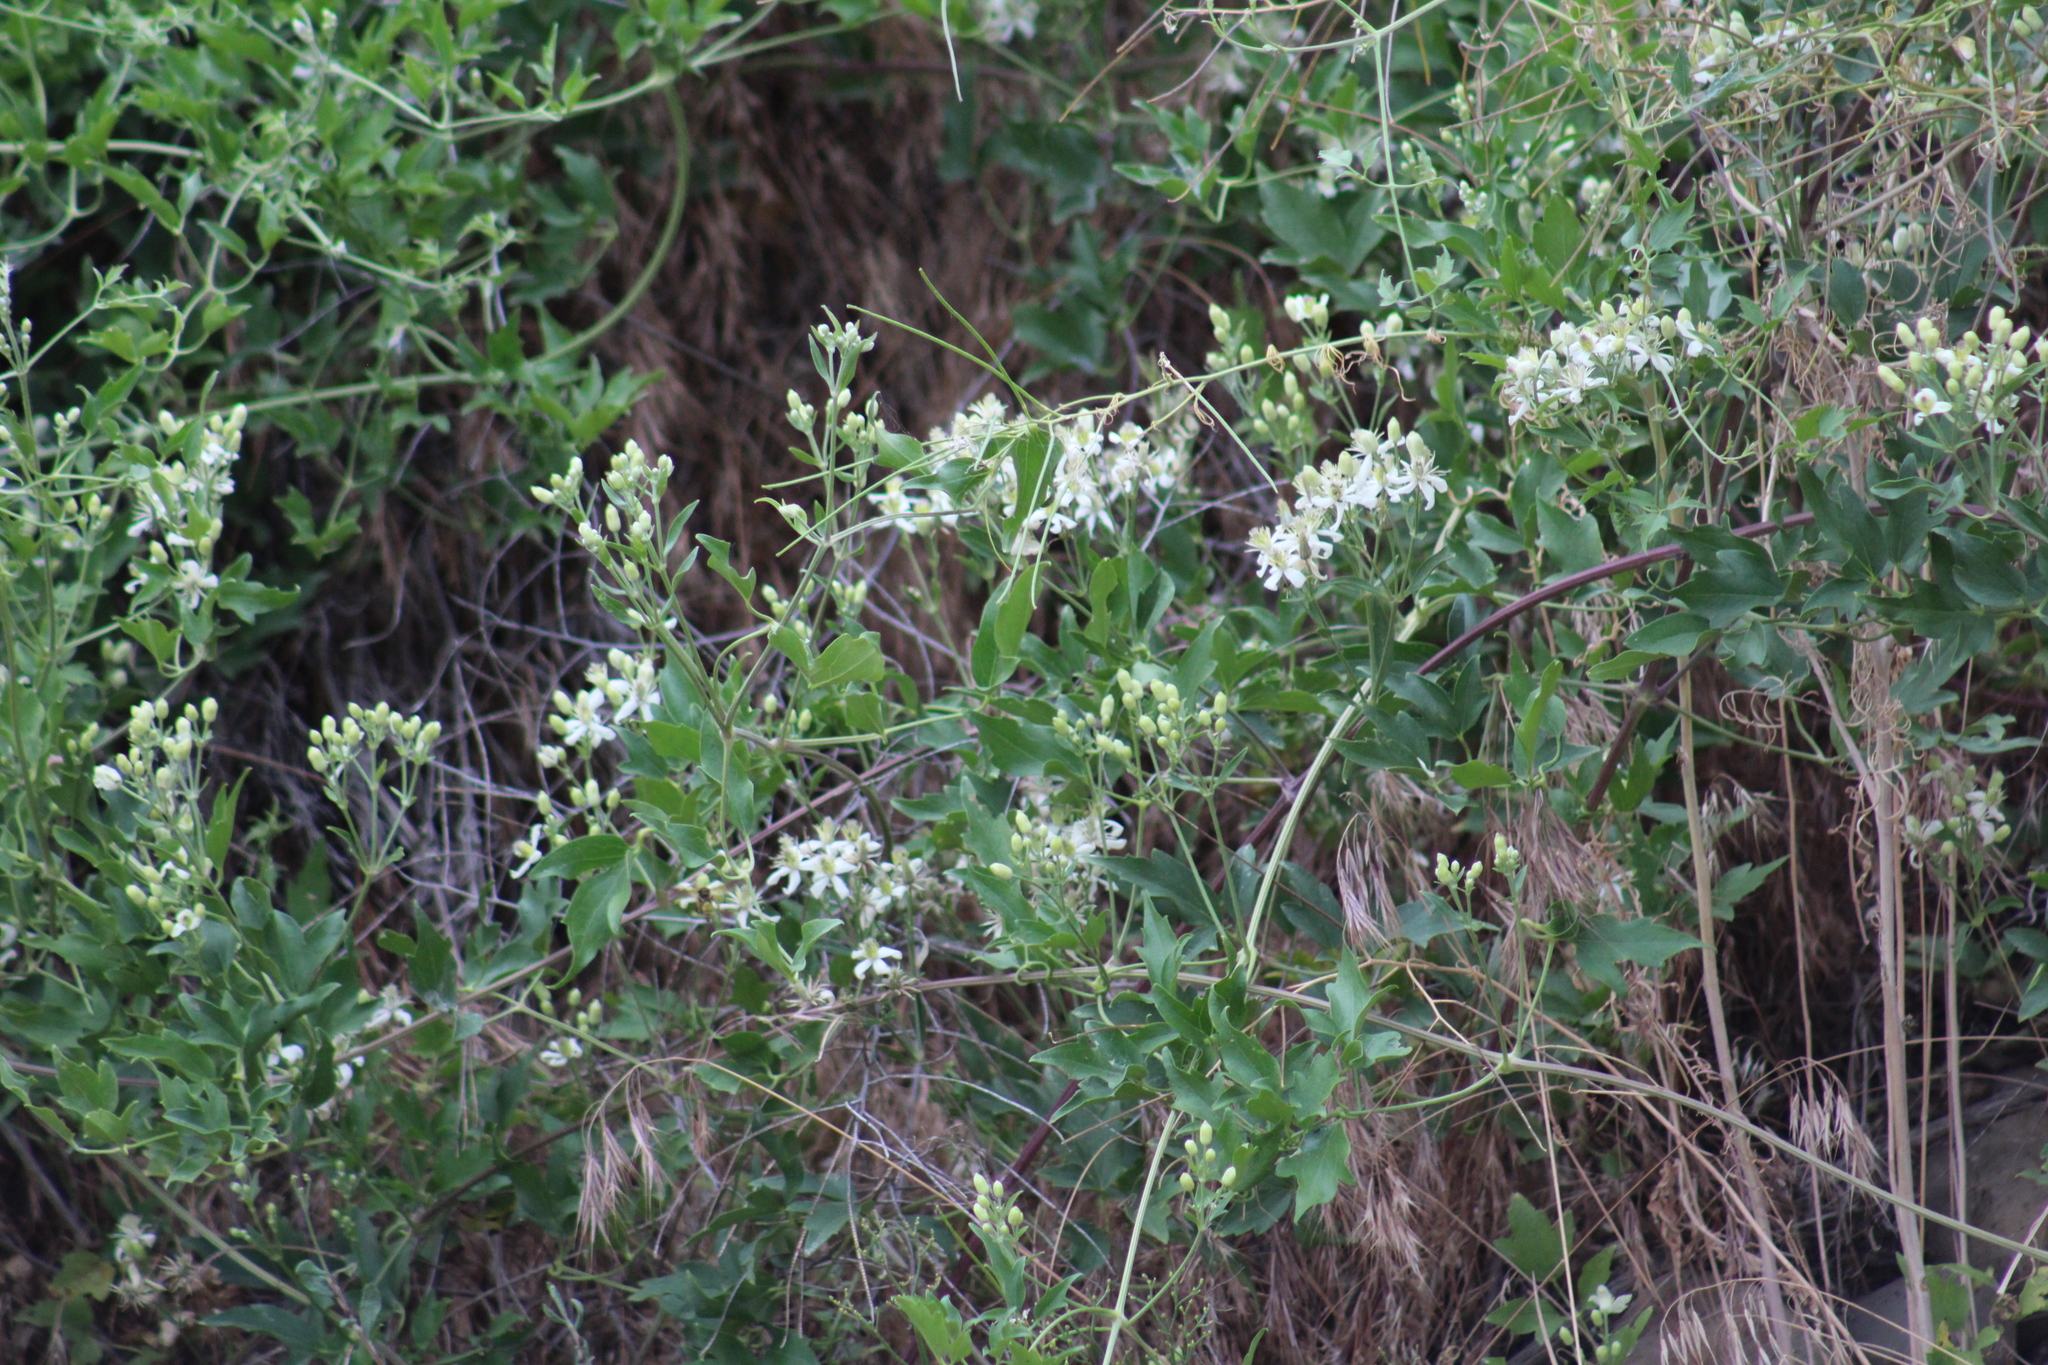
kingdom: Plantae
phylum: Tracheophyta
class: Magnoliopsida
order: Ranunculales
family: Ranunculaceae
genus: Clematis
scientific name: Clematis ligusticifolia
